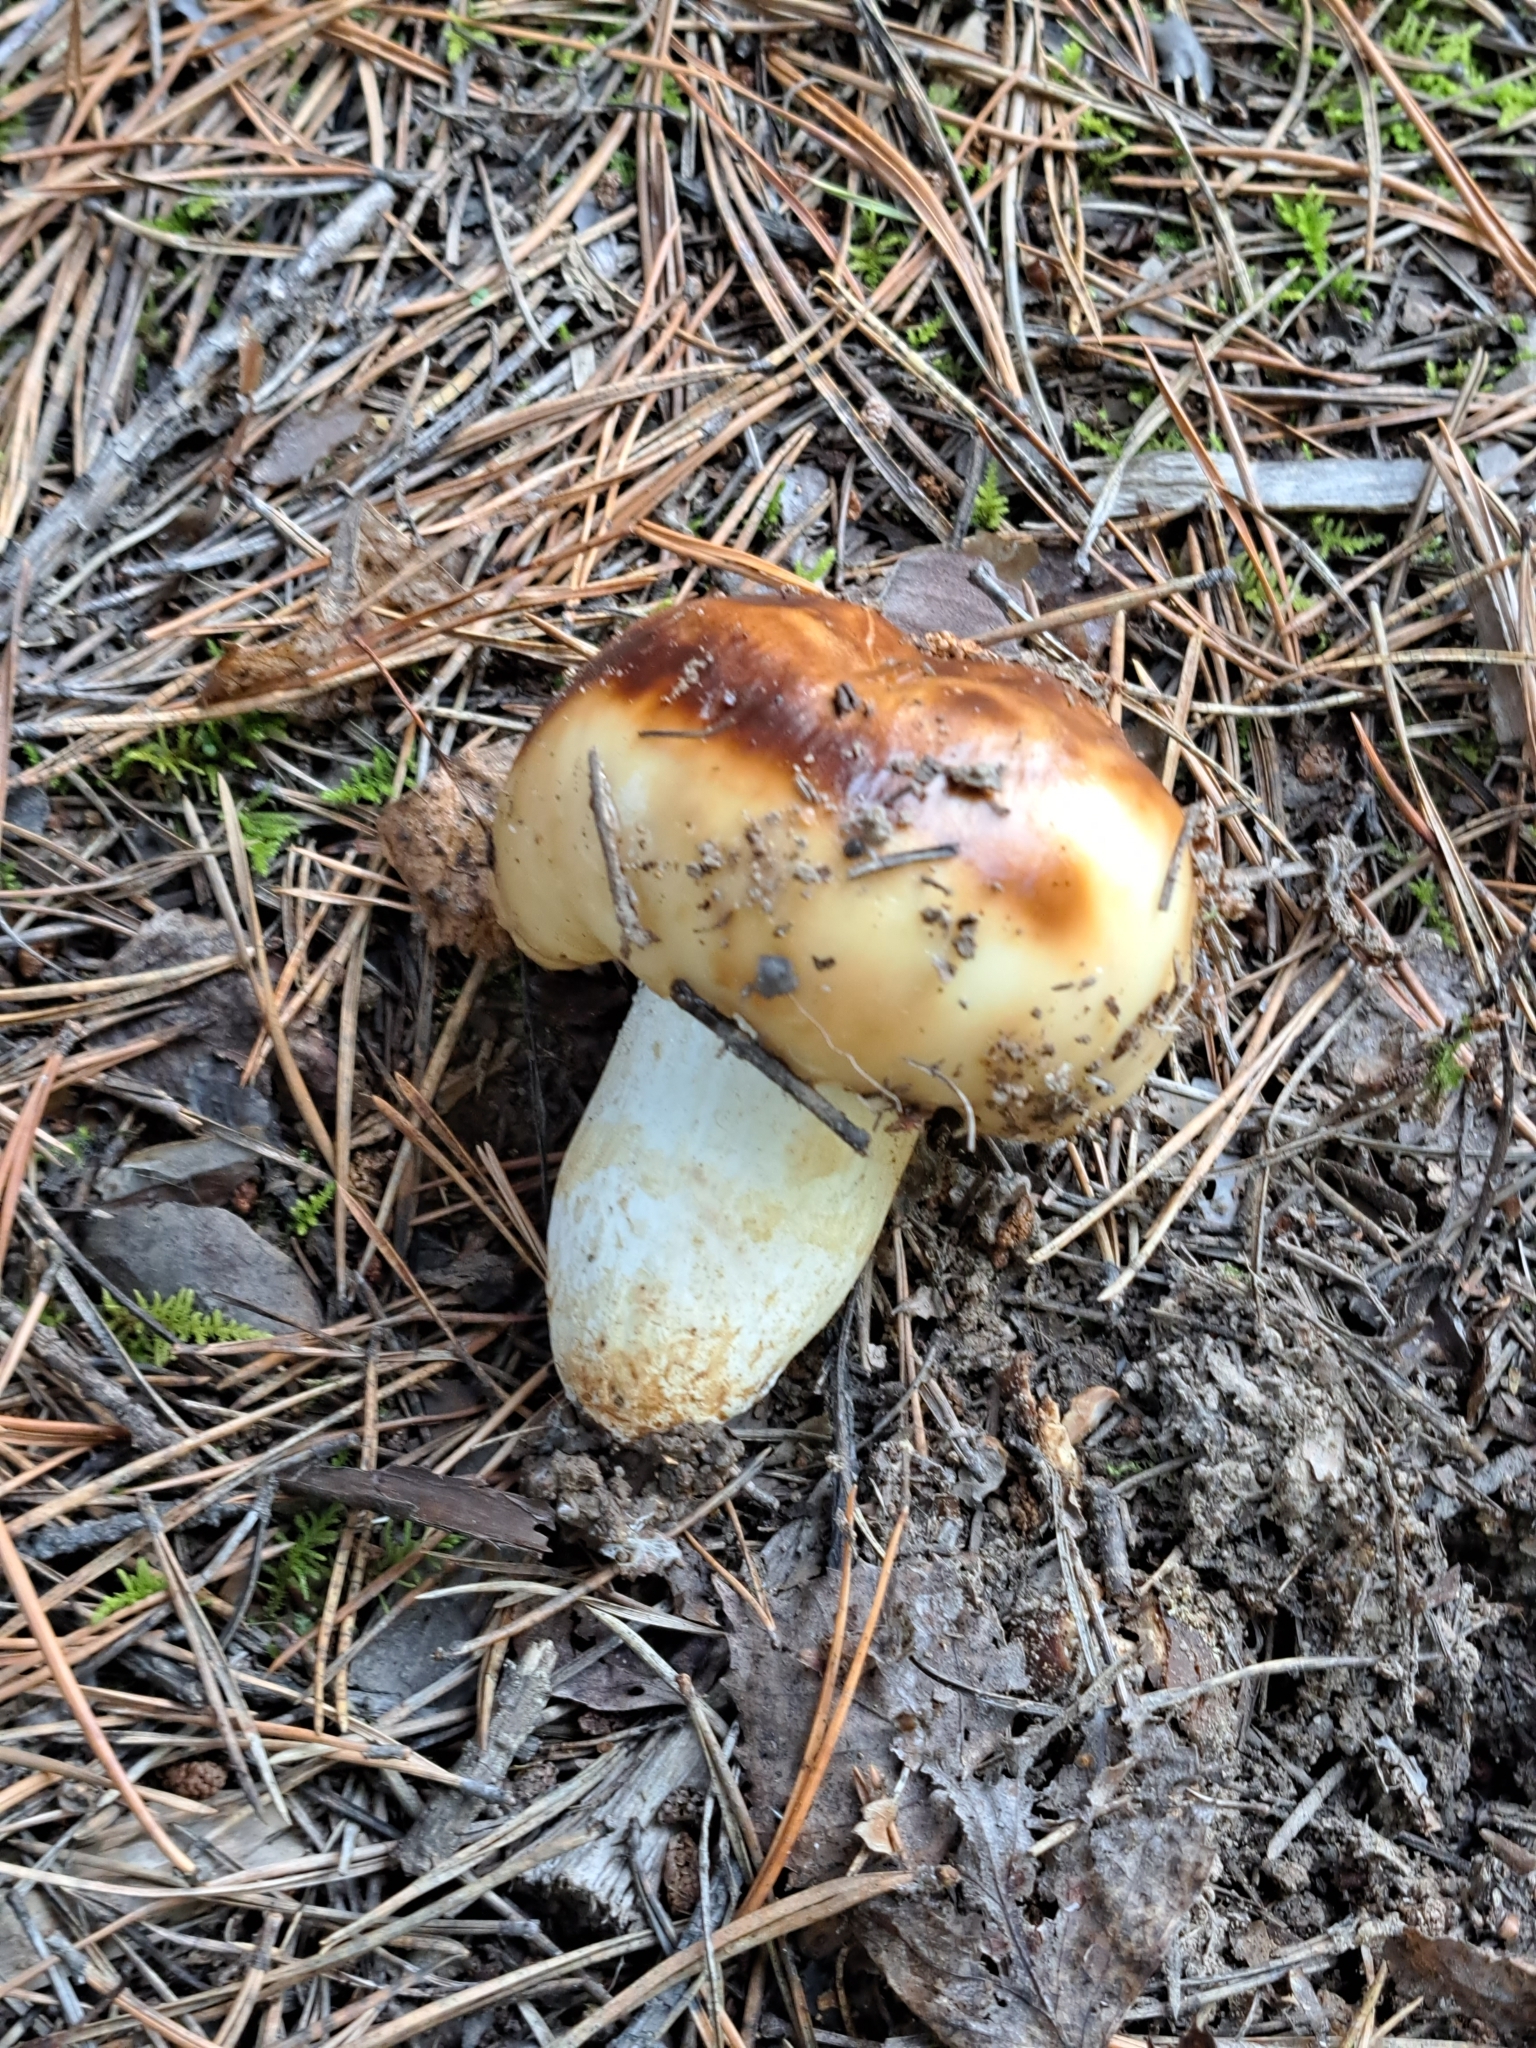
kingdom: Fungi
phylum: Basidiomycota
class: Agaricomycetes
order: Russulales
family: Russulaceae
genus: Russula
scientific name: Russula foetens
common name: Foetid russula
